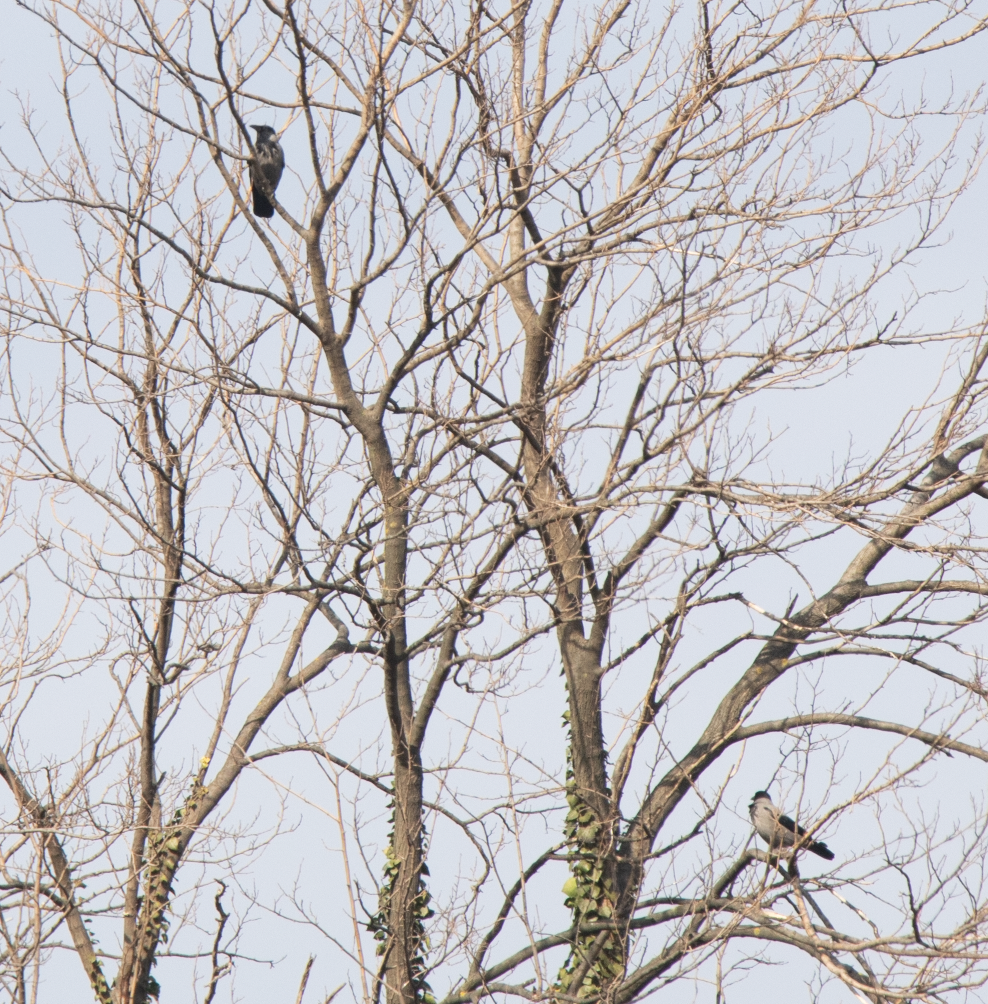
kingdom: Animalia
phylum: Chordata
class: Aves
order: Passeriformes
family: Corvidae
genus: Corvus
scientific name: Corvus cornix
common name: Hooded crow
